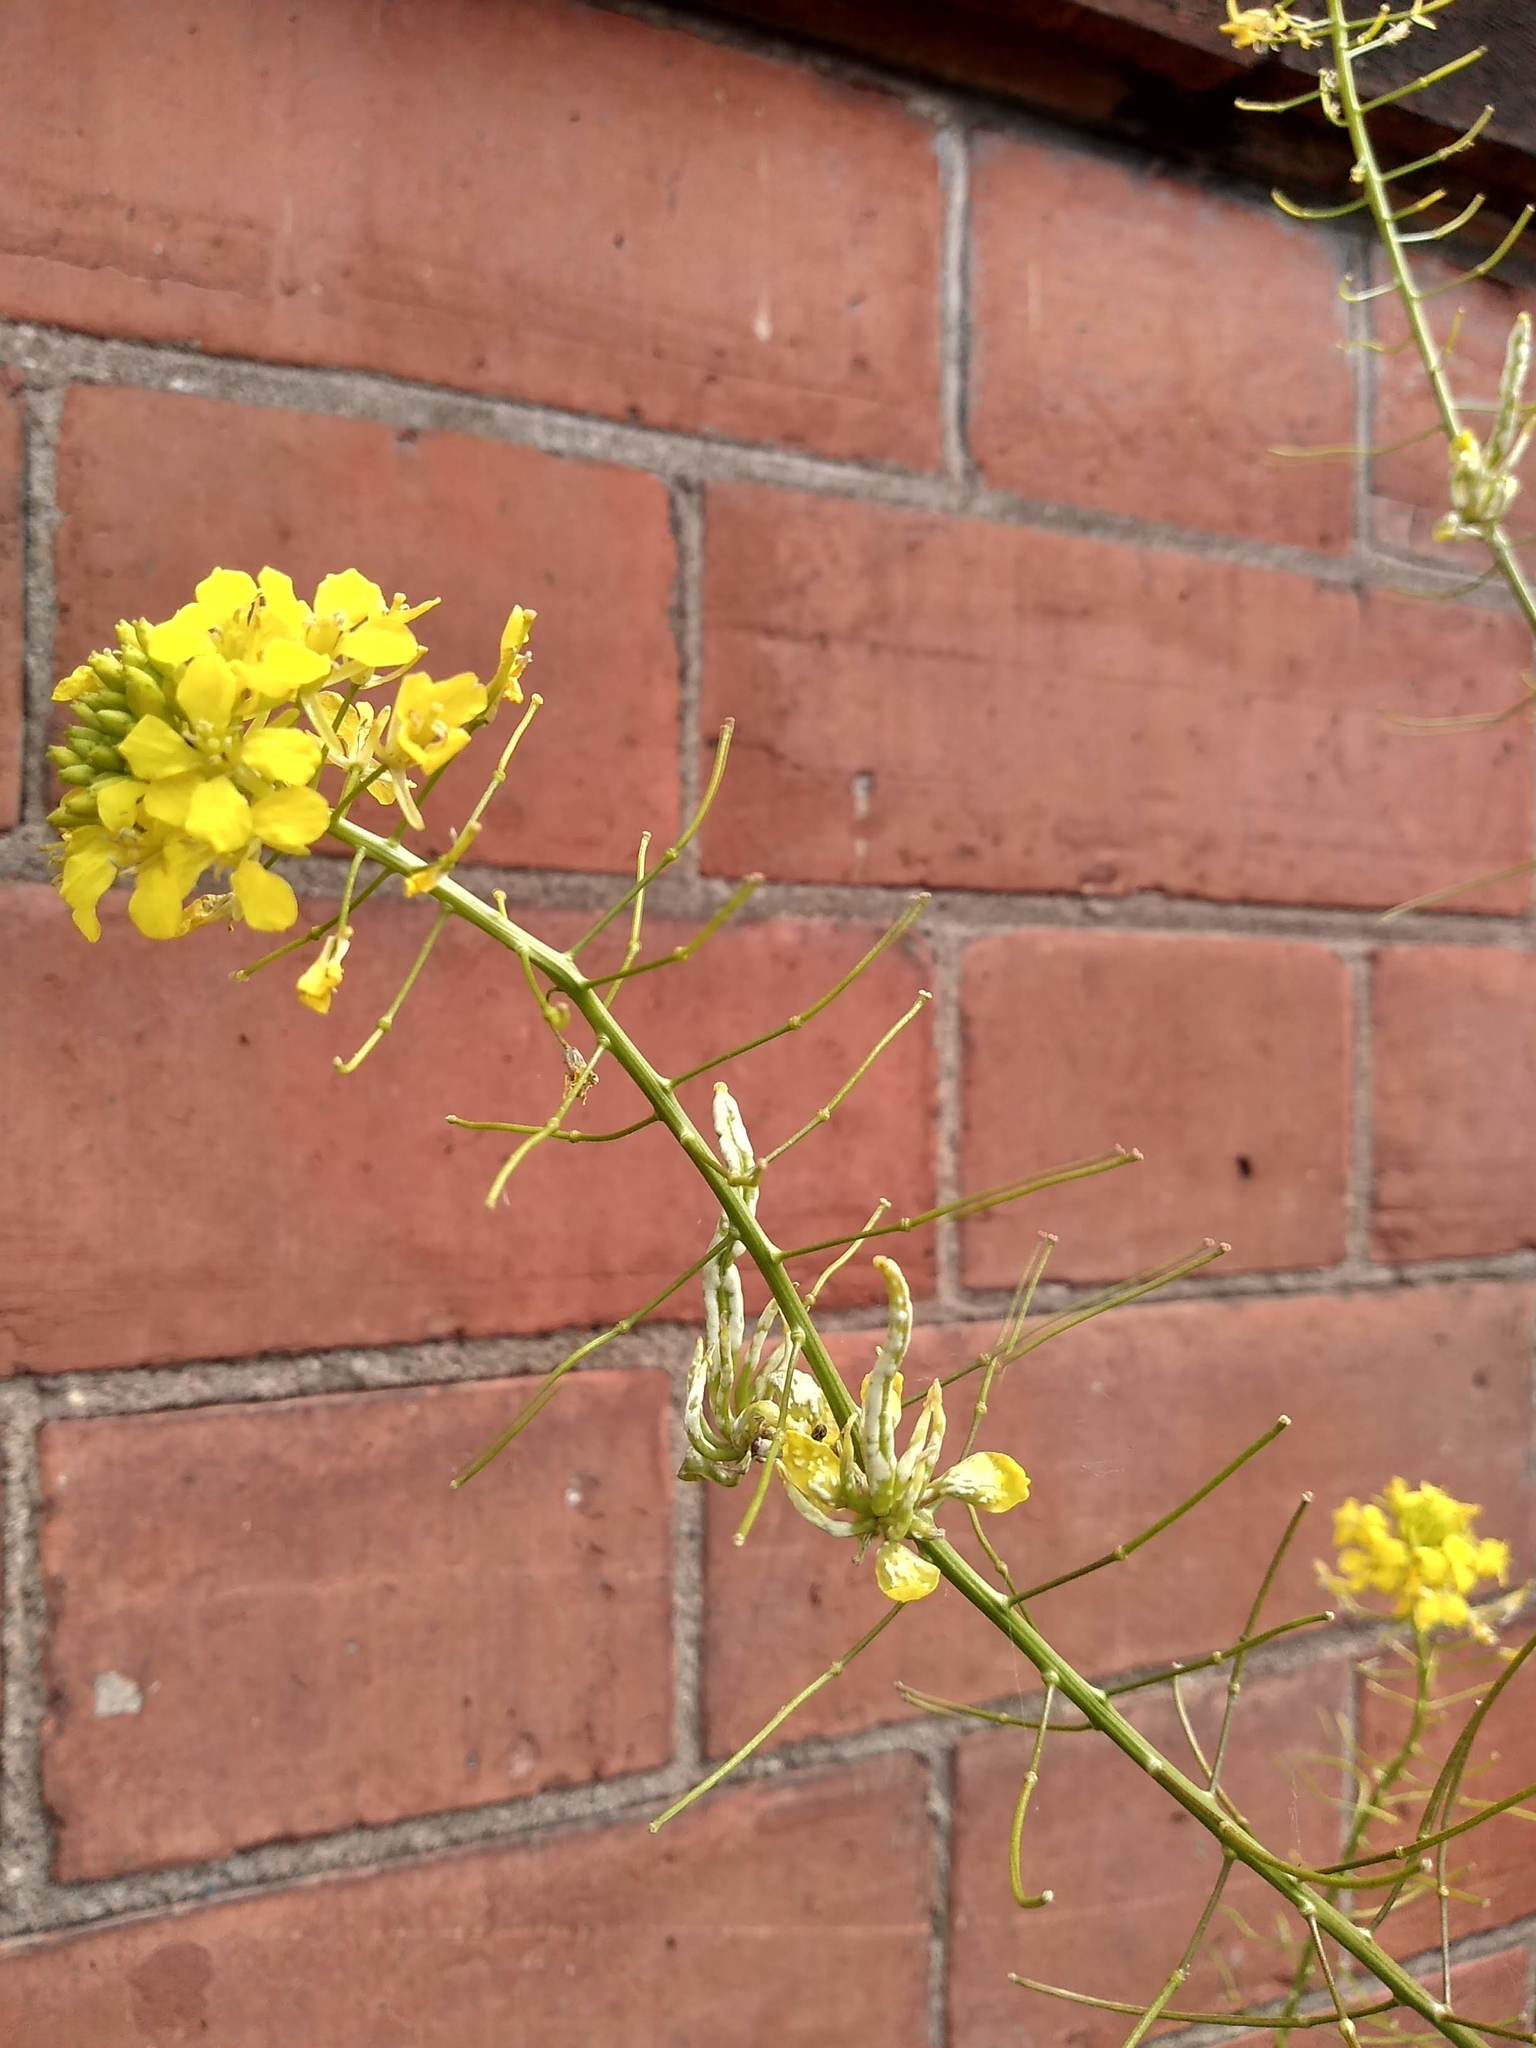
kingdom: Chromista
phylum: Oomycota
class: Peronosporea
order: Albuginales
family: Albuginaceae
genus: Albugo
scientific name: Albugo candida
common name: Crucifer white blister
